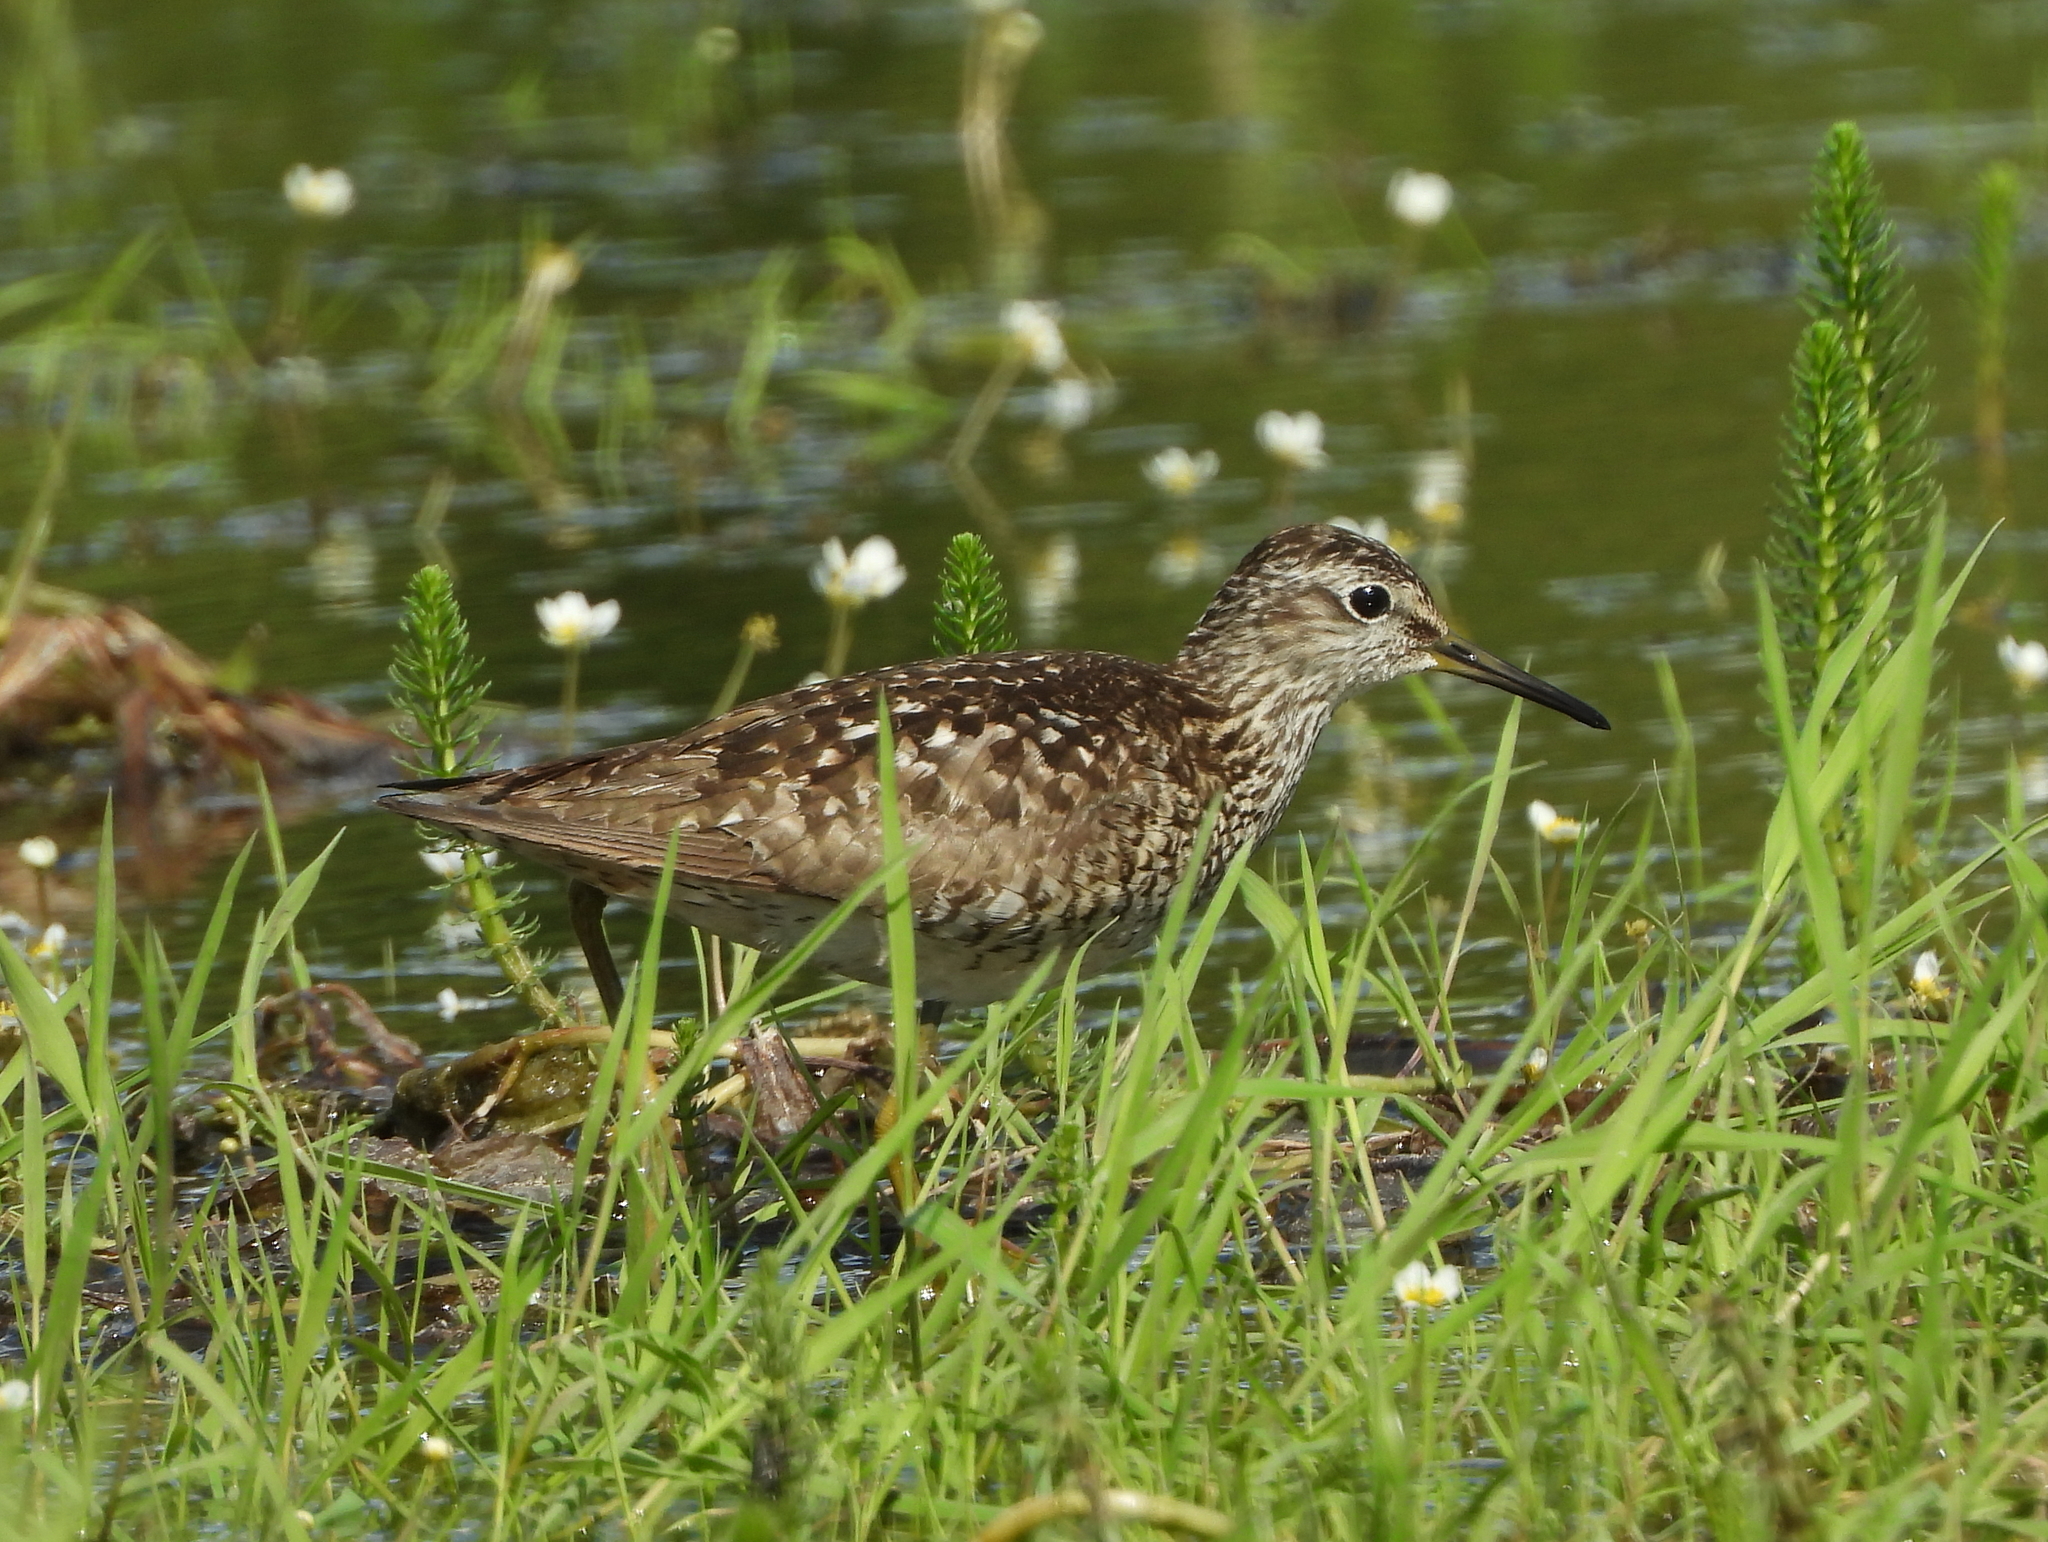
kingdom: Animalia
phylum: Chordata
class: Aves
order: Charadriiformes
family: Scolopacidae
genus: Tringa
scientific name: Tringa glareola
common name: Wood sandpiper
